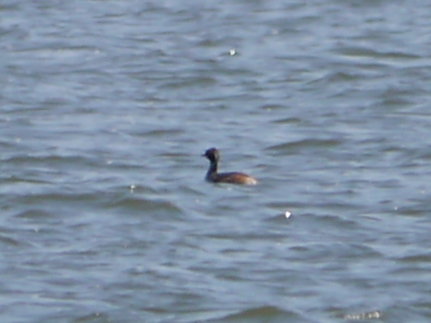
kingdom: Animalia
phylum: Chordata
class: Aves
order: Podicipediformes
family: Podicipedidae
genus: Podiceps
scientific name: Podiceps
